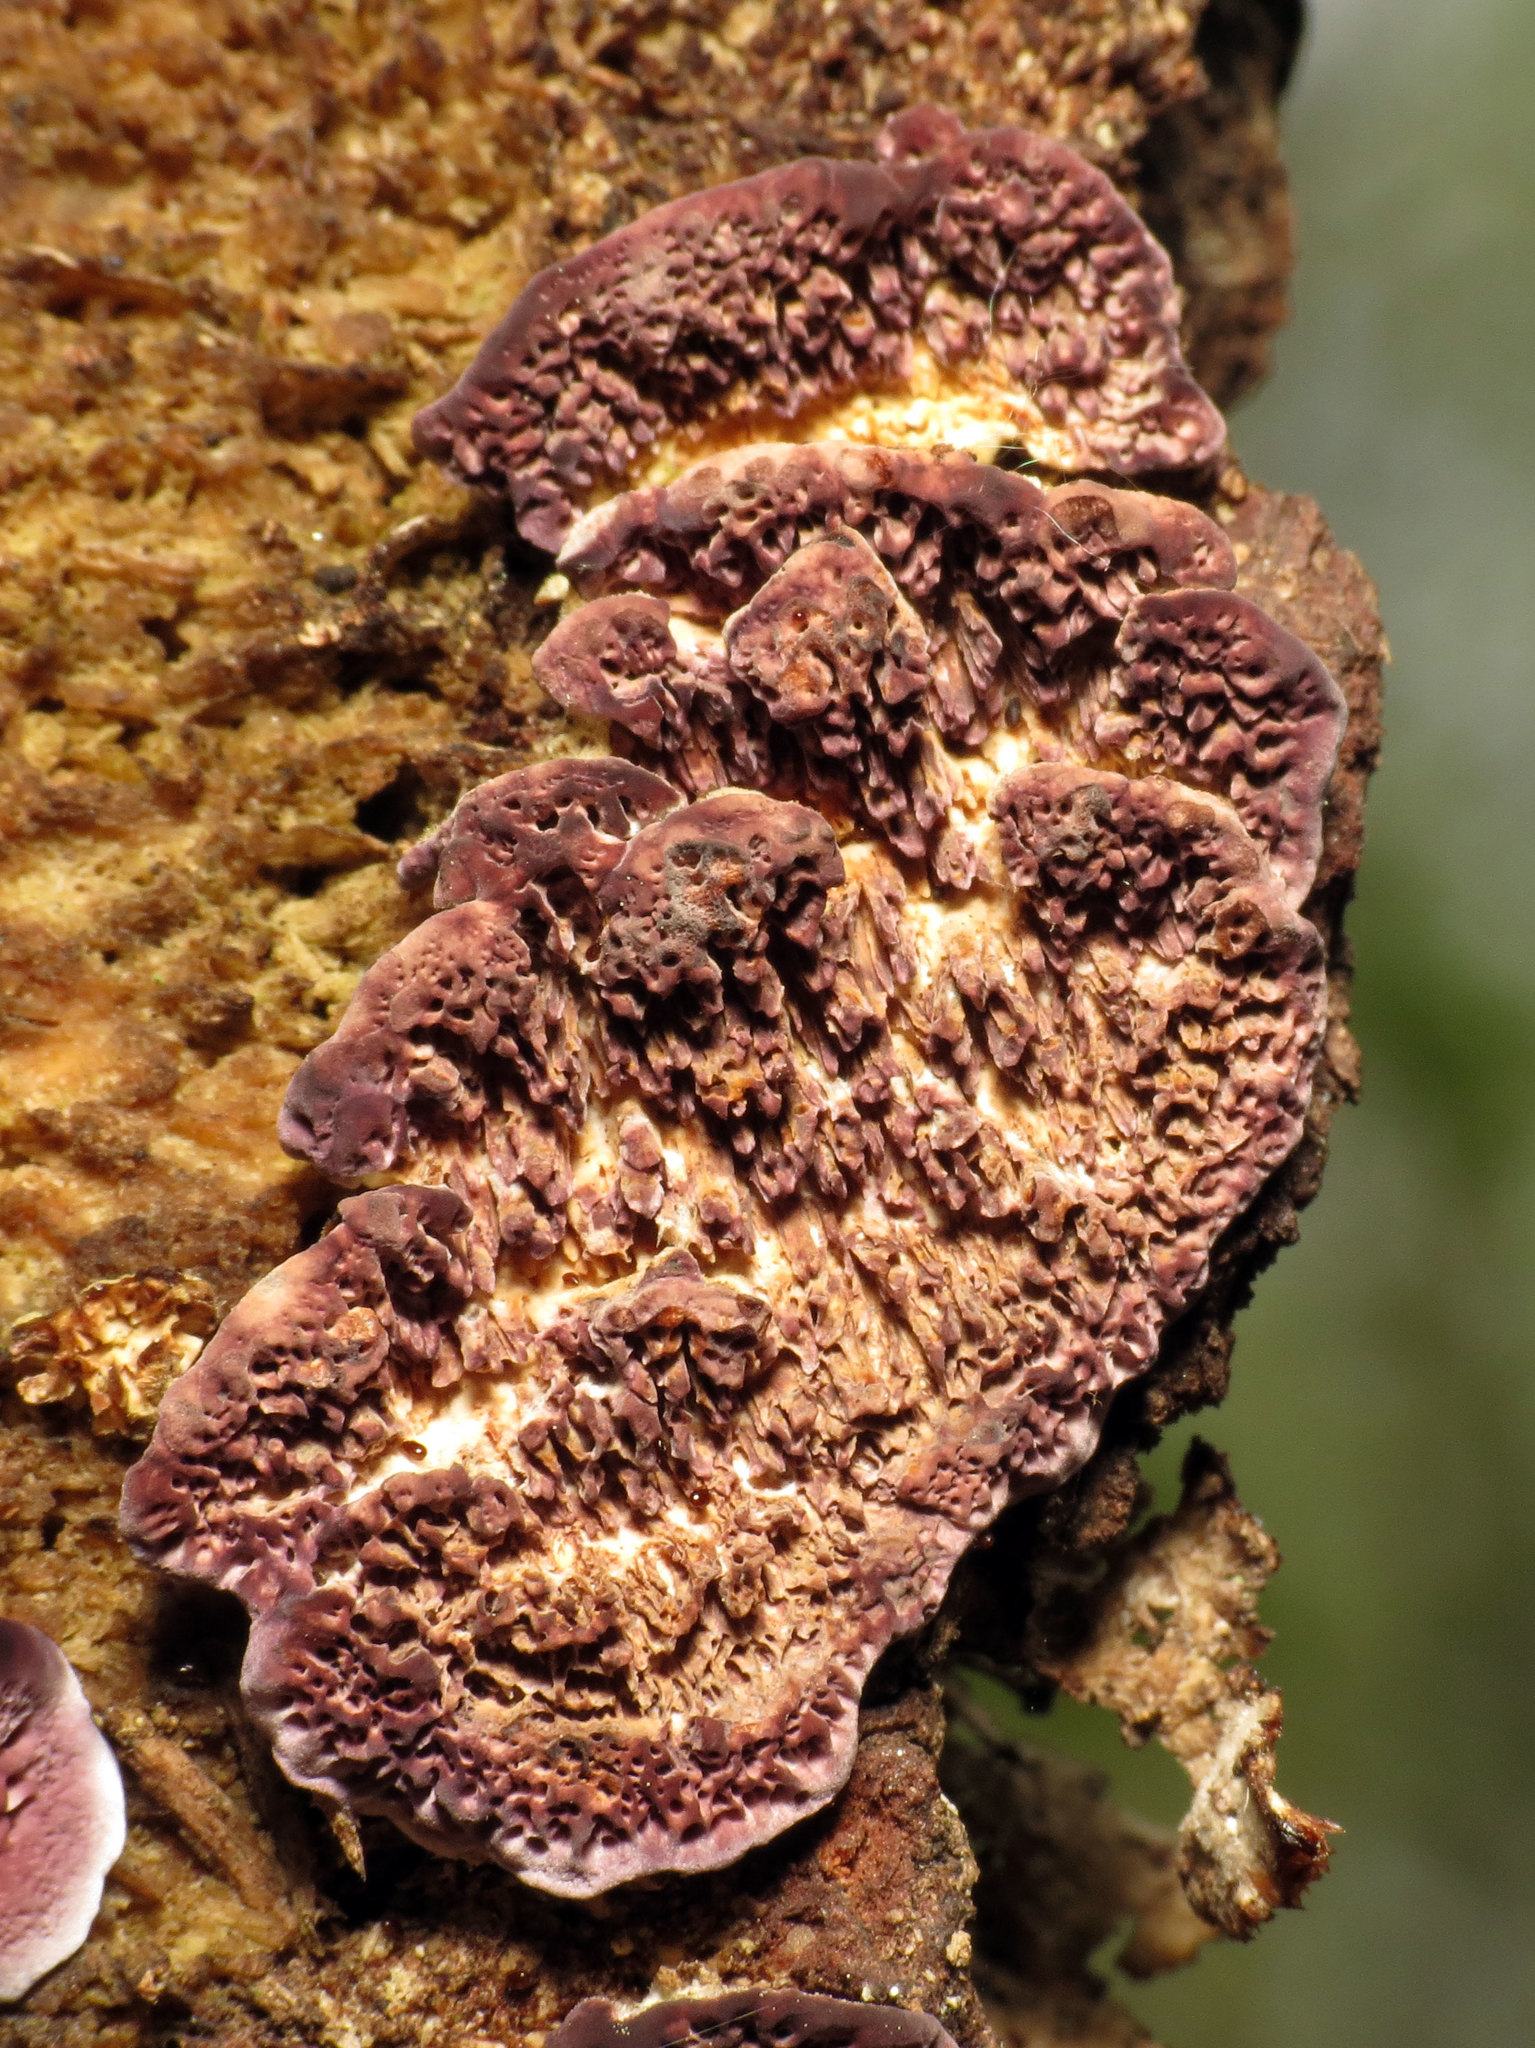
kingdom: Fungi
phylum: Basidiomycota
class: Agaricomycetes
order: Hymenochaetales
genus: Trichaptum
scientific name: Trichaptum biforme
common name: Violet-toothed polypore
